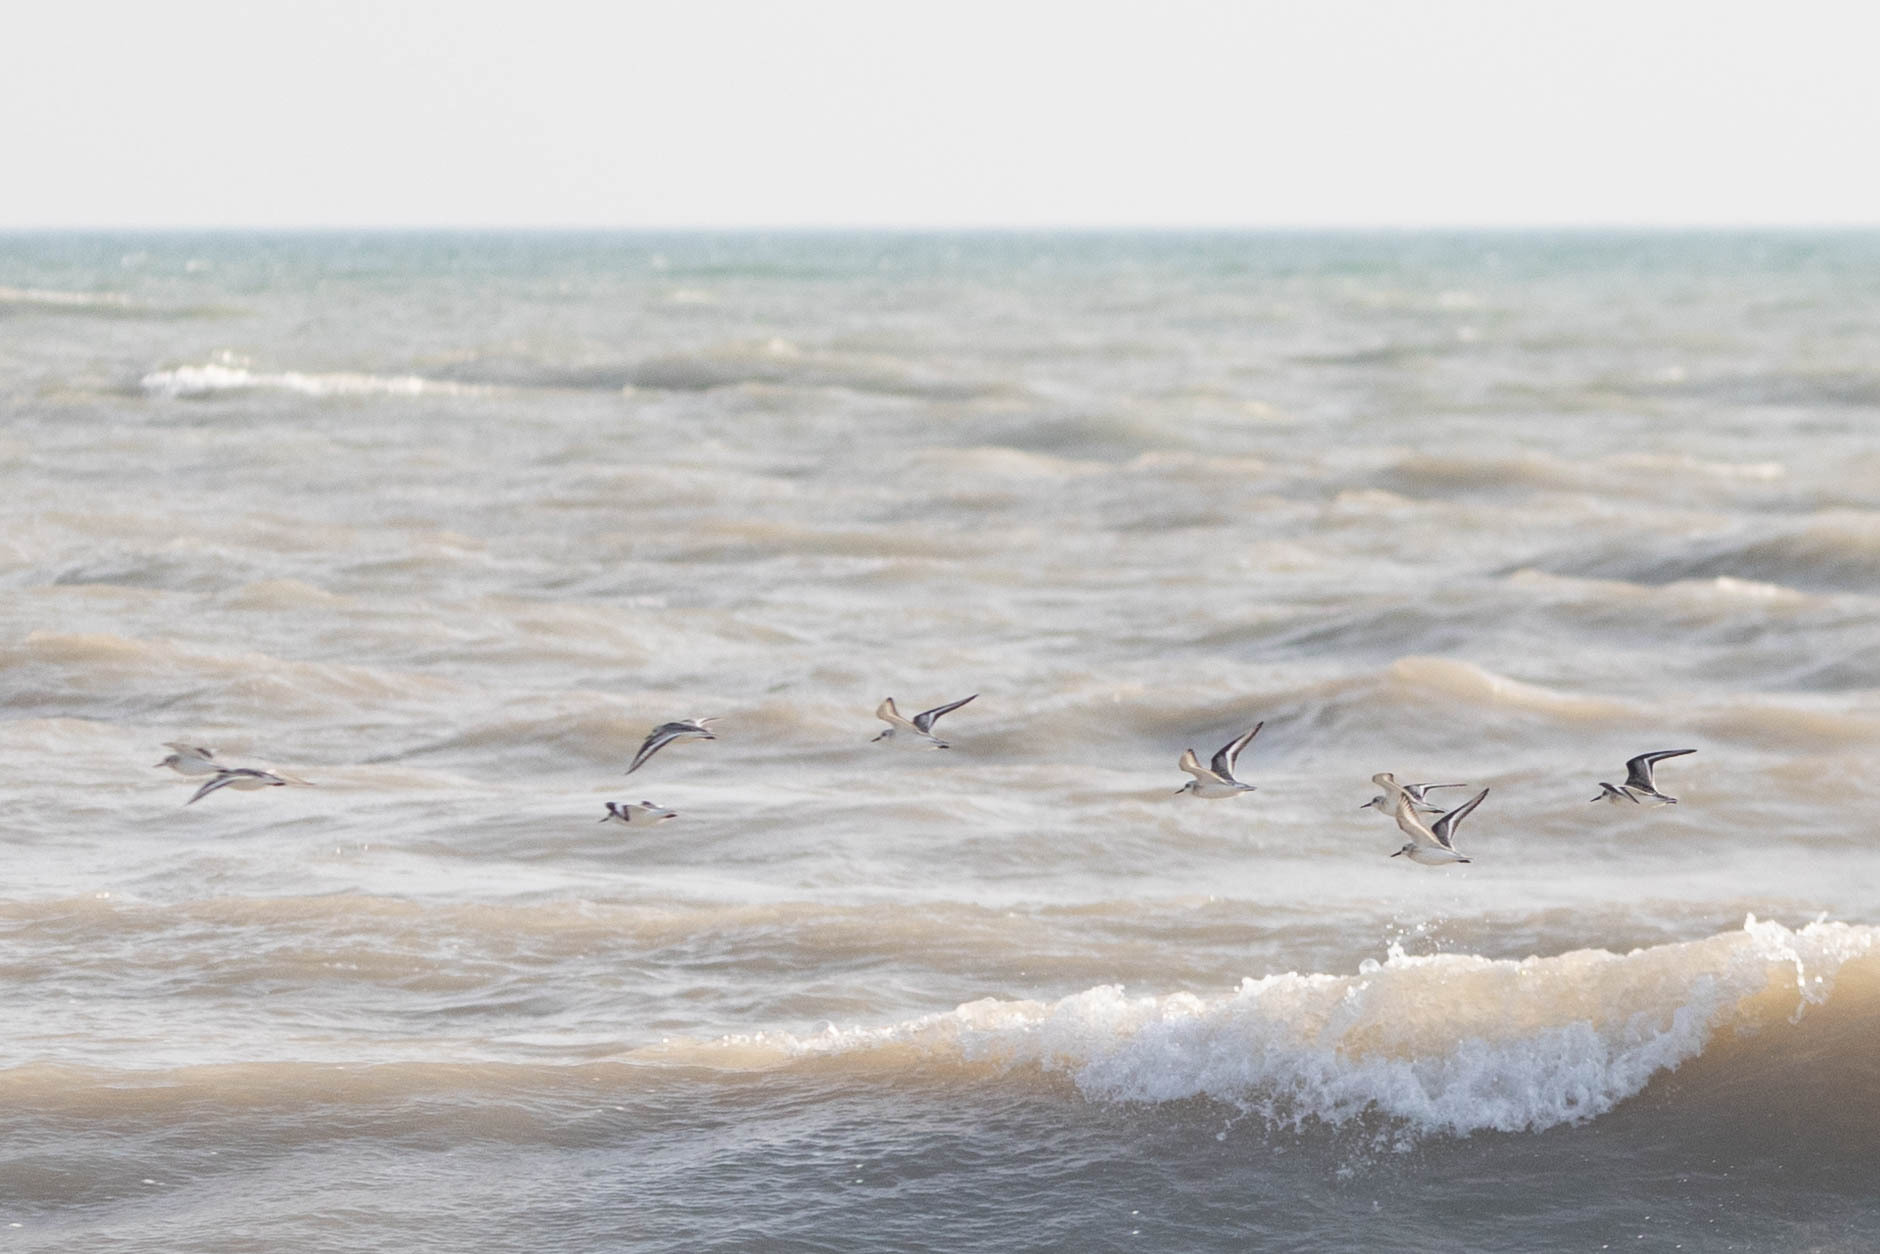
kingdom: Animalia
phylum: Chordata
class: Aves
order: Charadriiformes
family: Scolopacidae
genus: Calidris
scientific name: Calidris alba
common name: Sanderling
